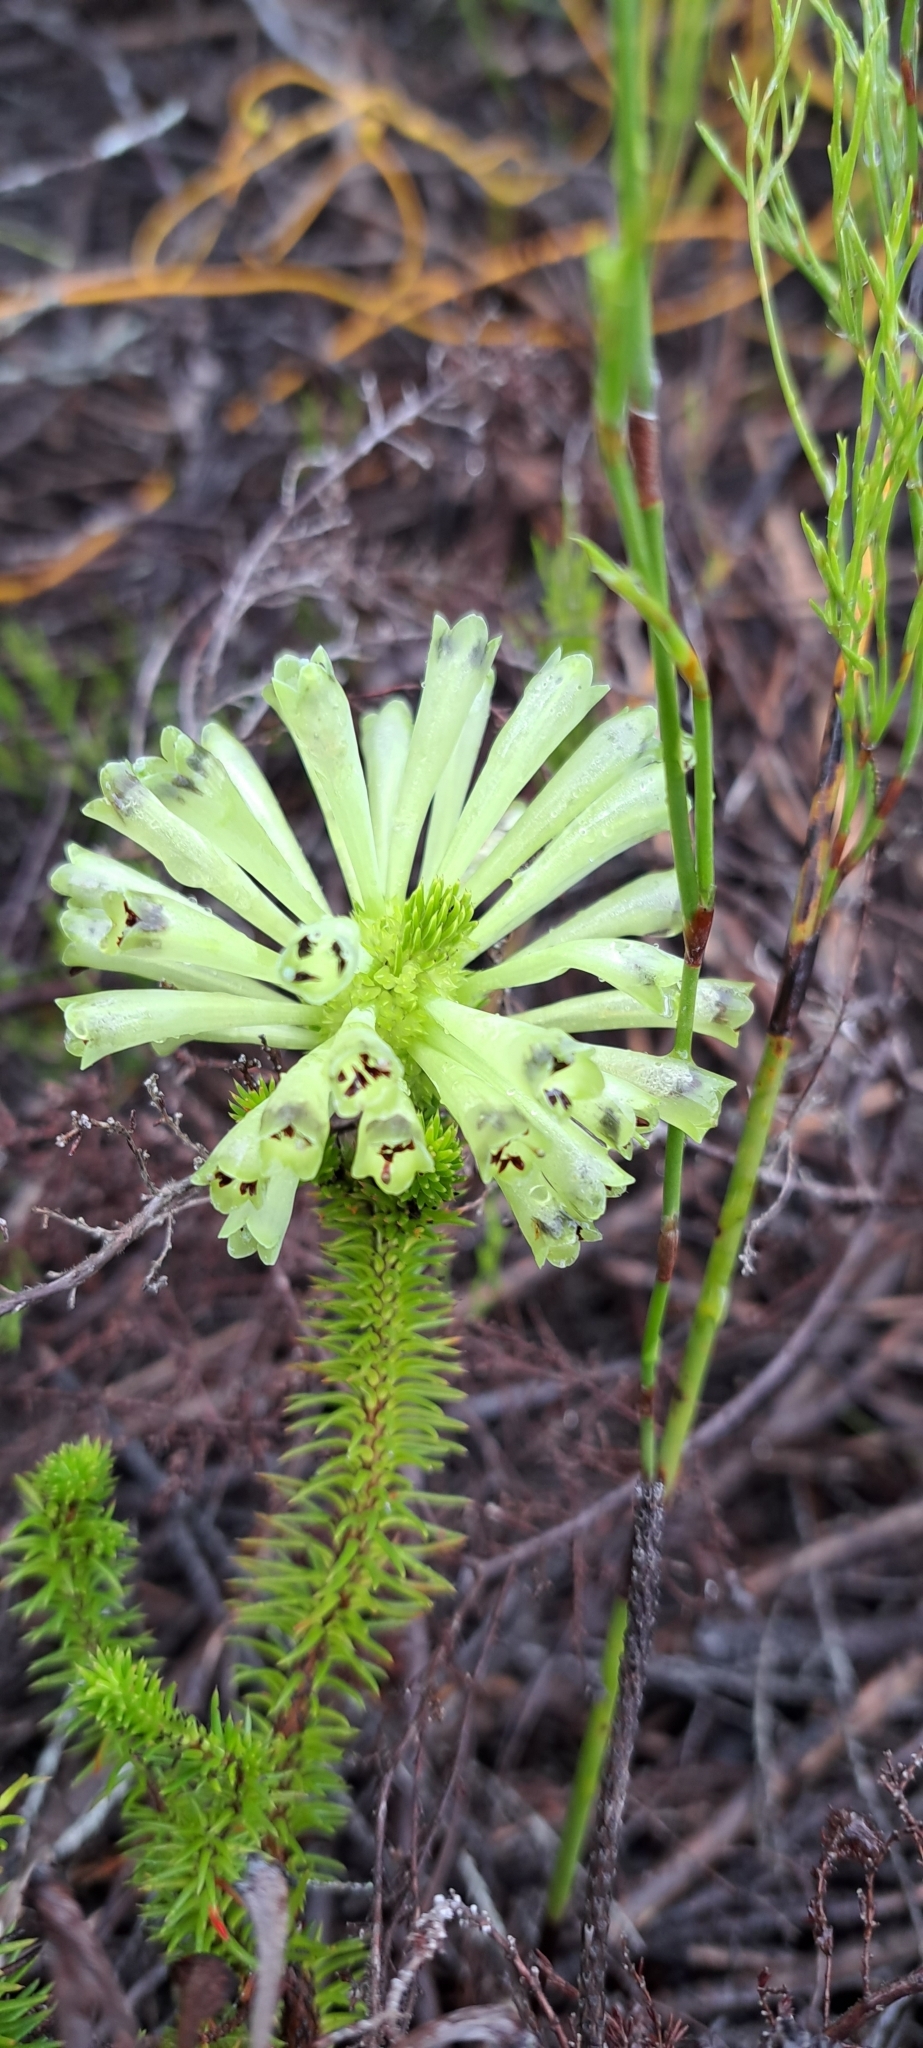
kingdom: Plantae
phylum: Tracheophyta
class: Magnoliopsida
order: Ericales
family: Ericaceae
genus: Erica
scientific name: Erica sessiliflora
